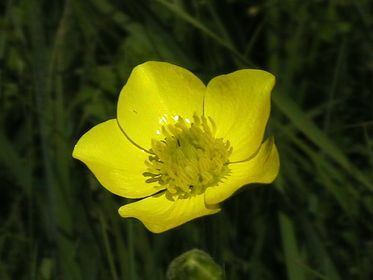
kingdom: Plantae
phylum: Tracheophyta
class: Magnoliopsida
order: Ranunculales
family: Ranunculaceae
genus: Ranunculus
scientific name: Ranunculus illyricus
